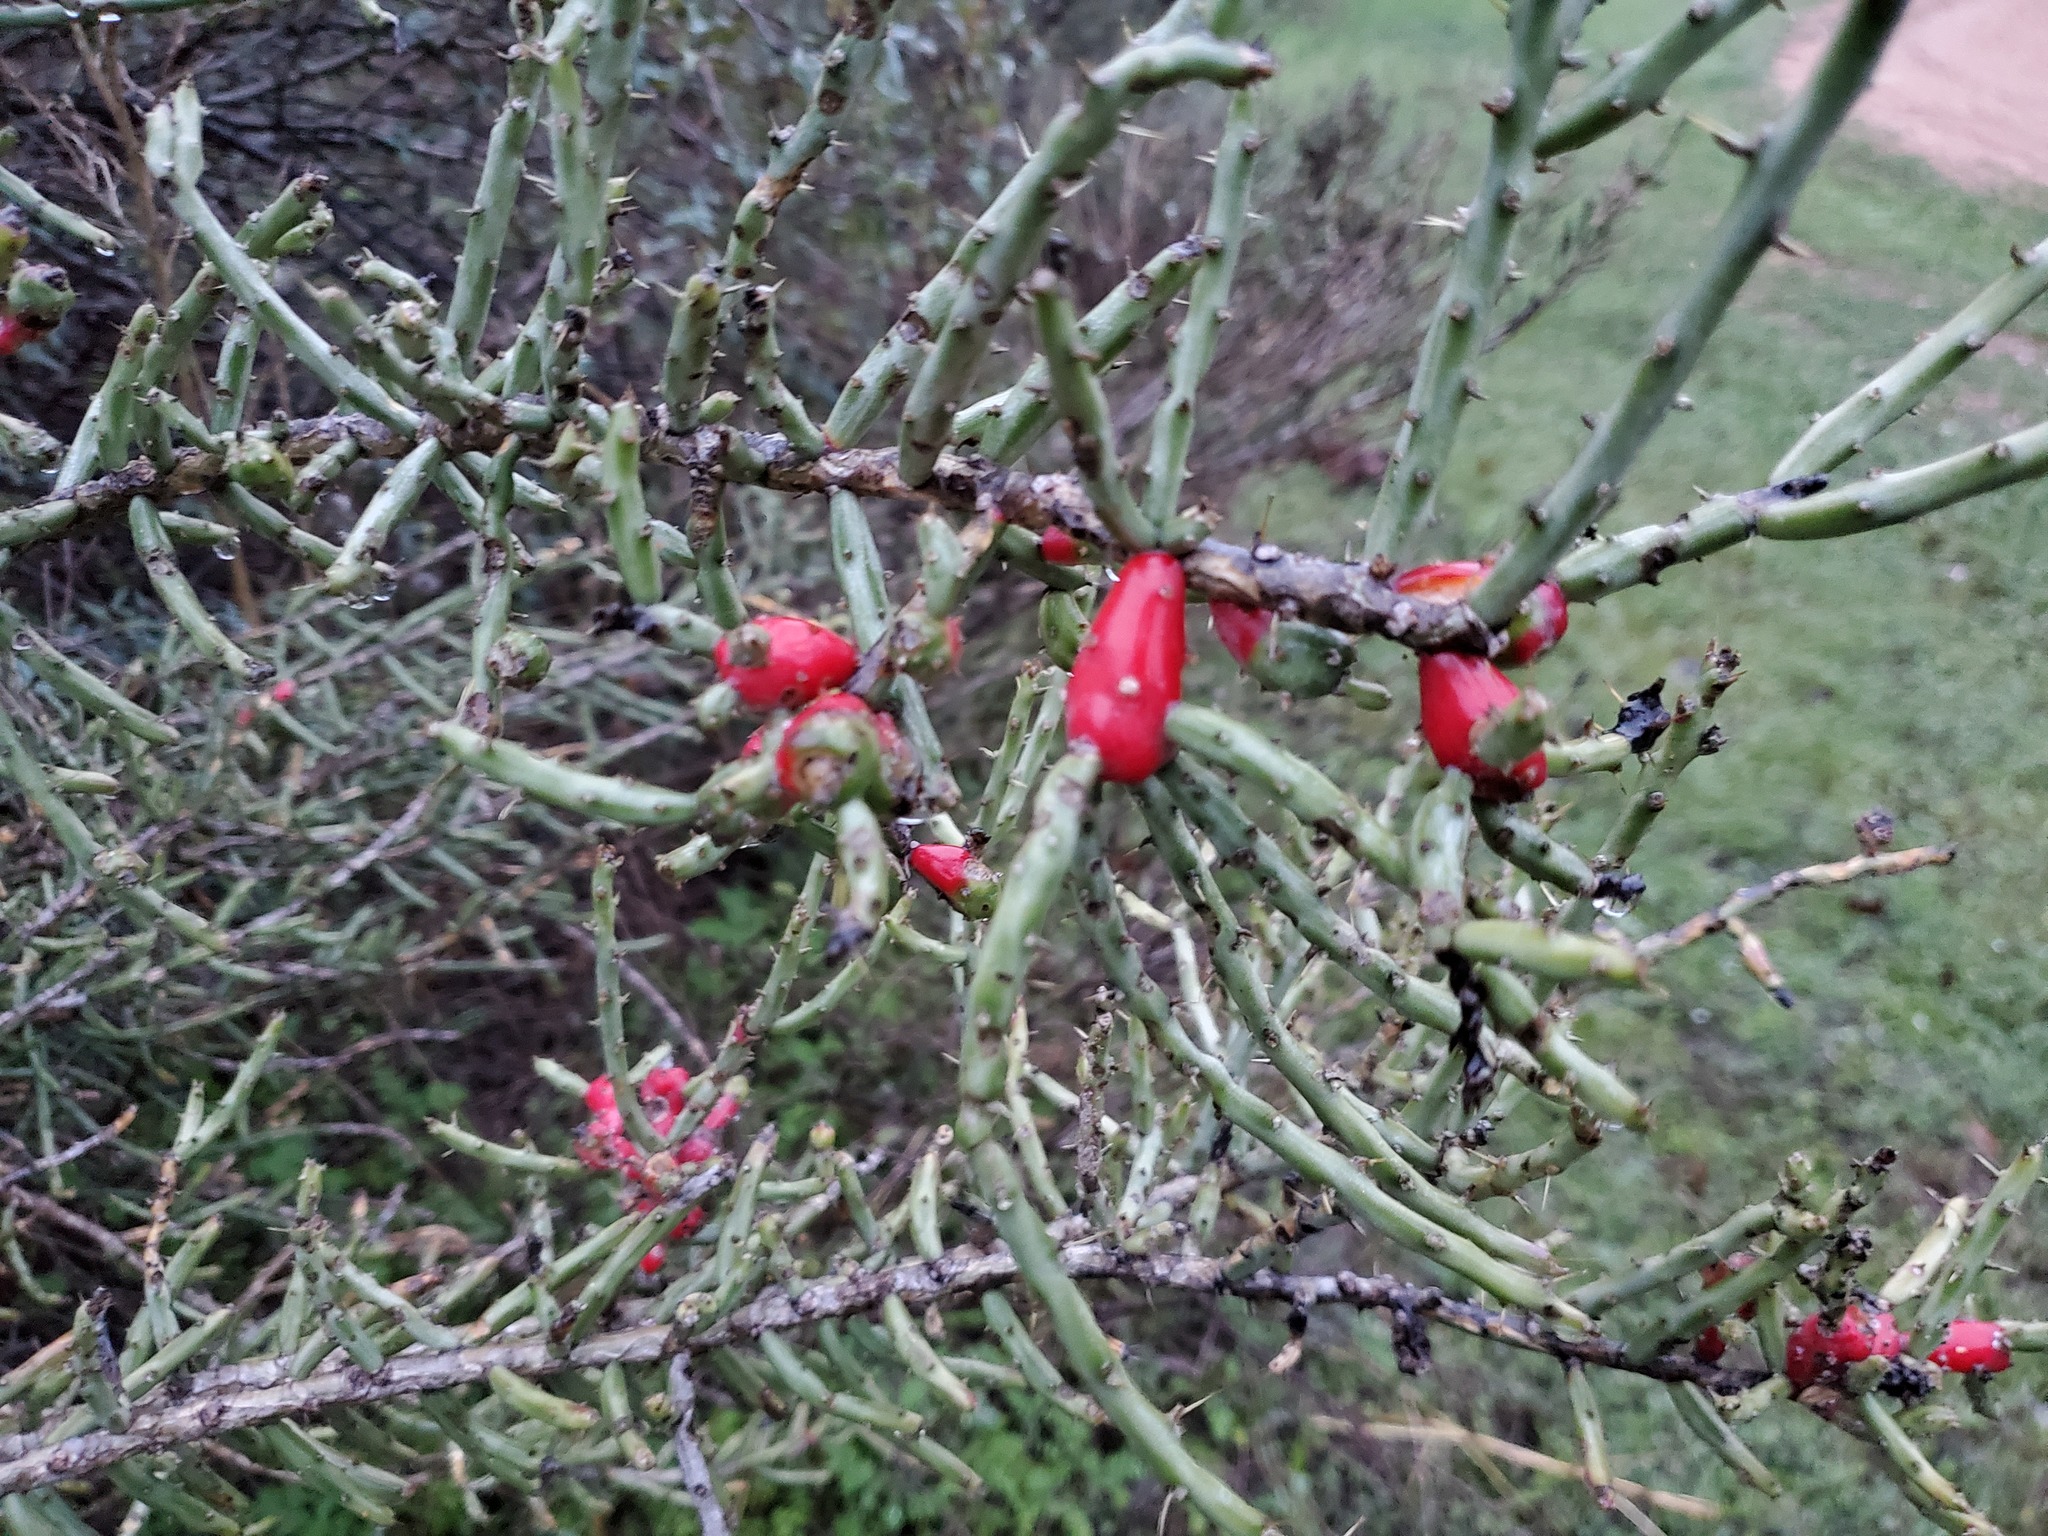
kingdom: Plantae
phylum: Tracheophyta
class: Magnoliopsida
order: Caryophyllales
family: Cactaceae
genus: Cylindropuntia
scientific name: Cylindropuntia leptocaulis
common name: Christmas cactus
